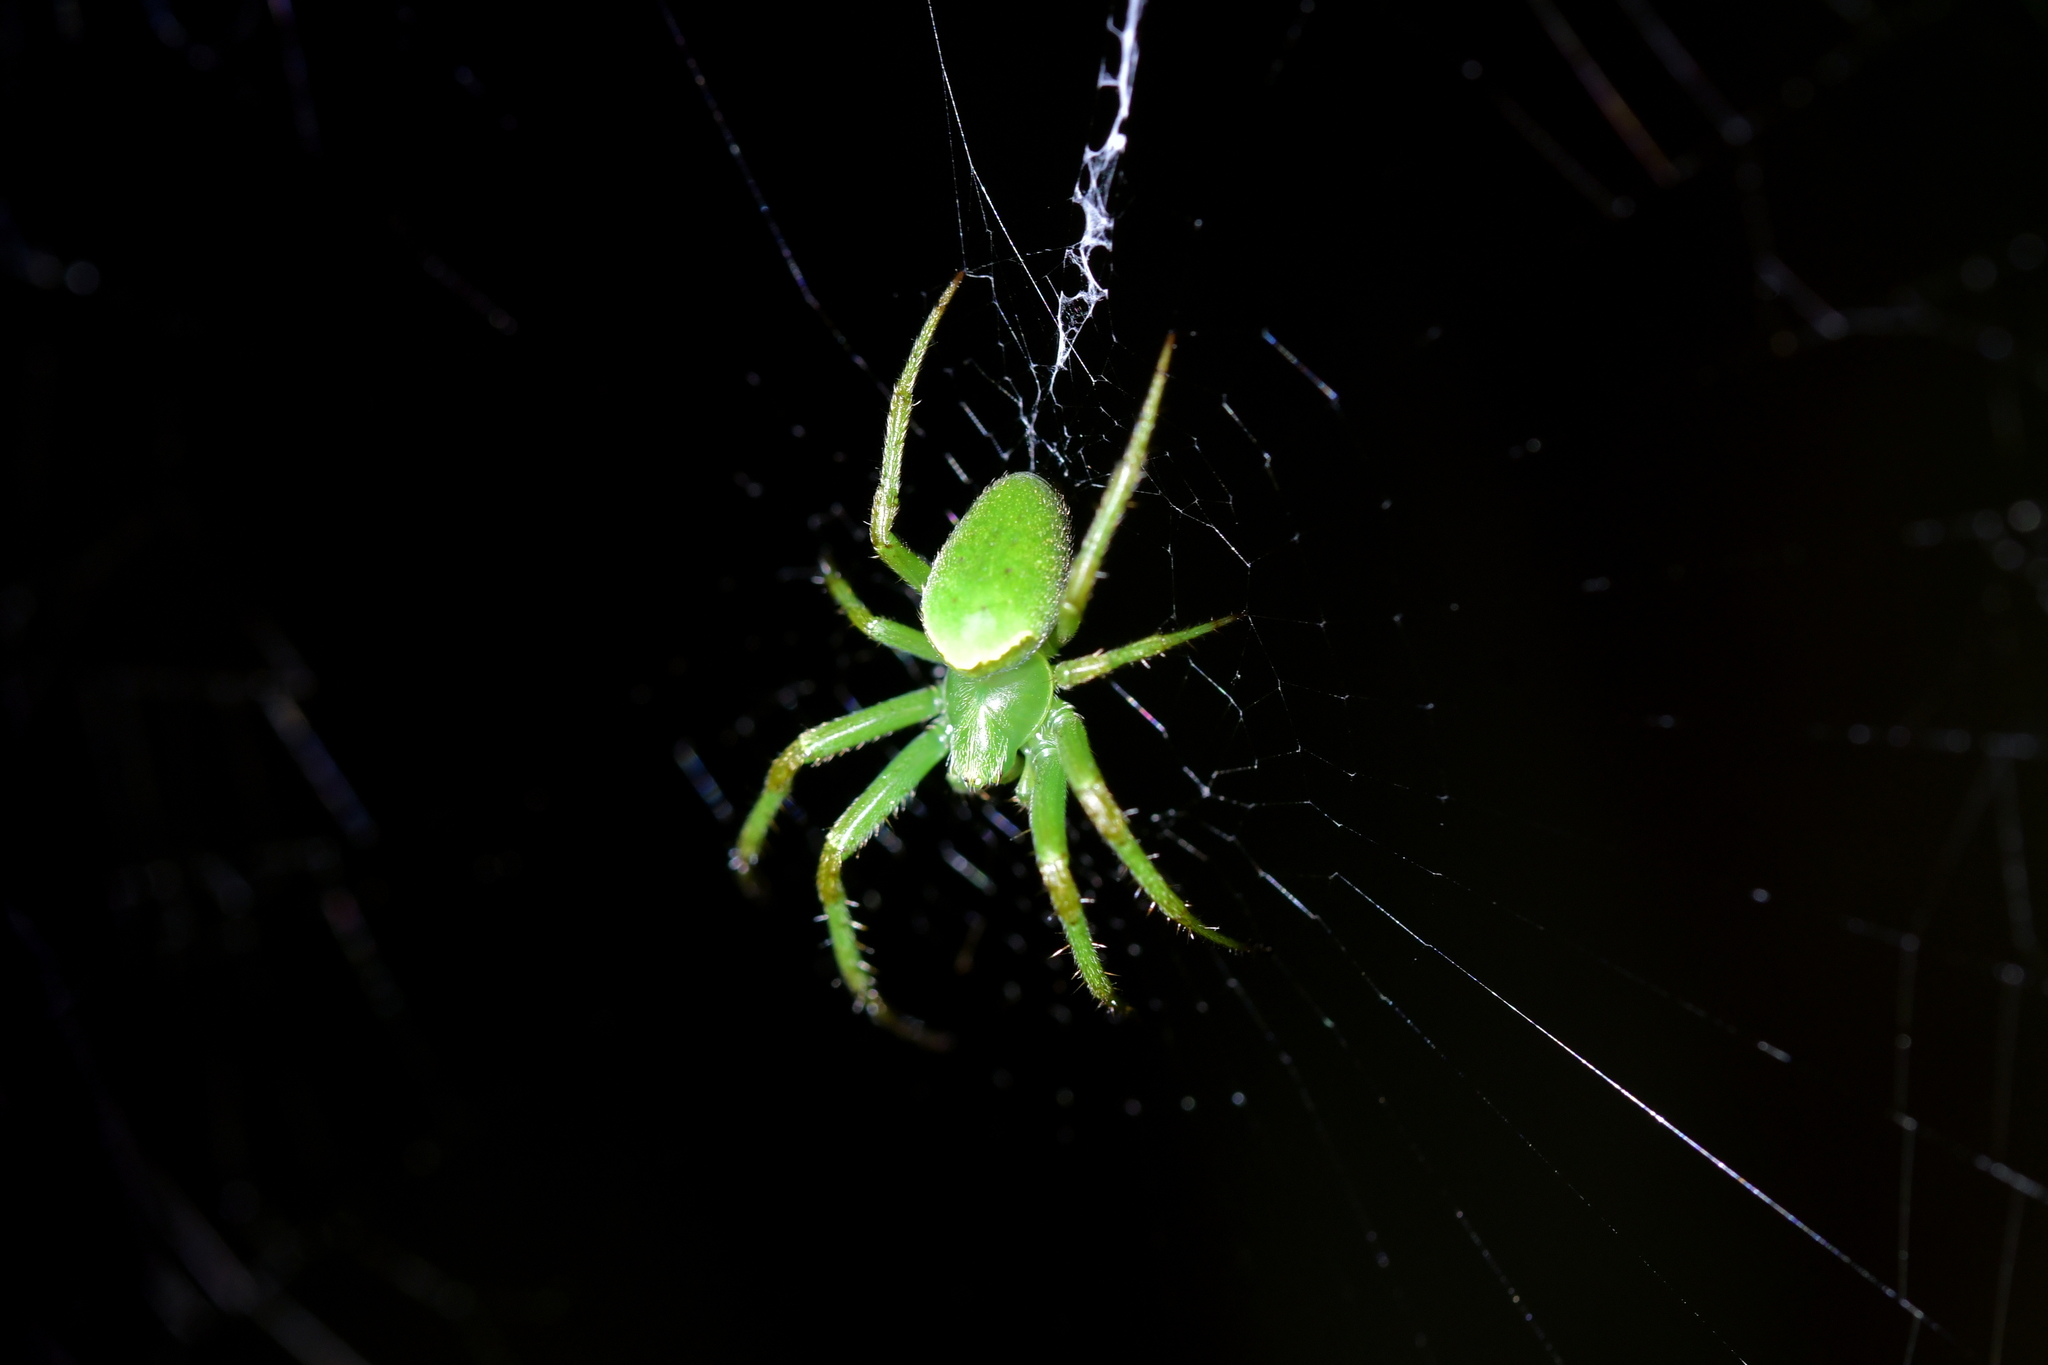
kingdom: Animalia
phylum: Arthropoda
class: Arachnida
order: Araneae
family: Araneidae
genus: Colaranea
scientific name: Colaranea viriditas
